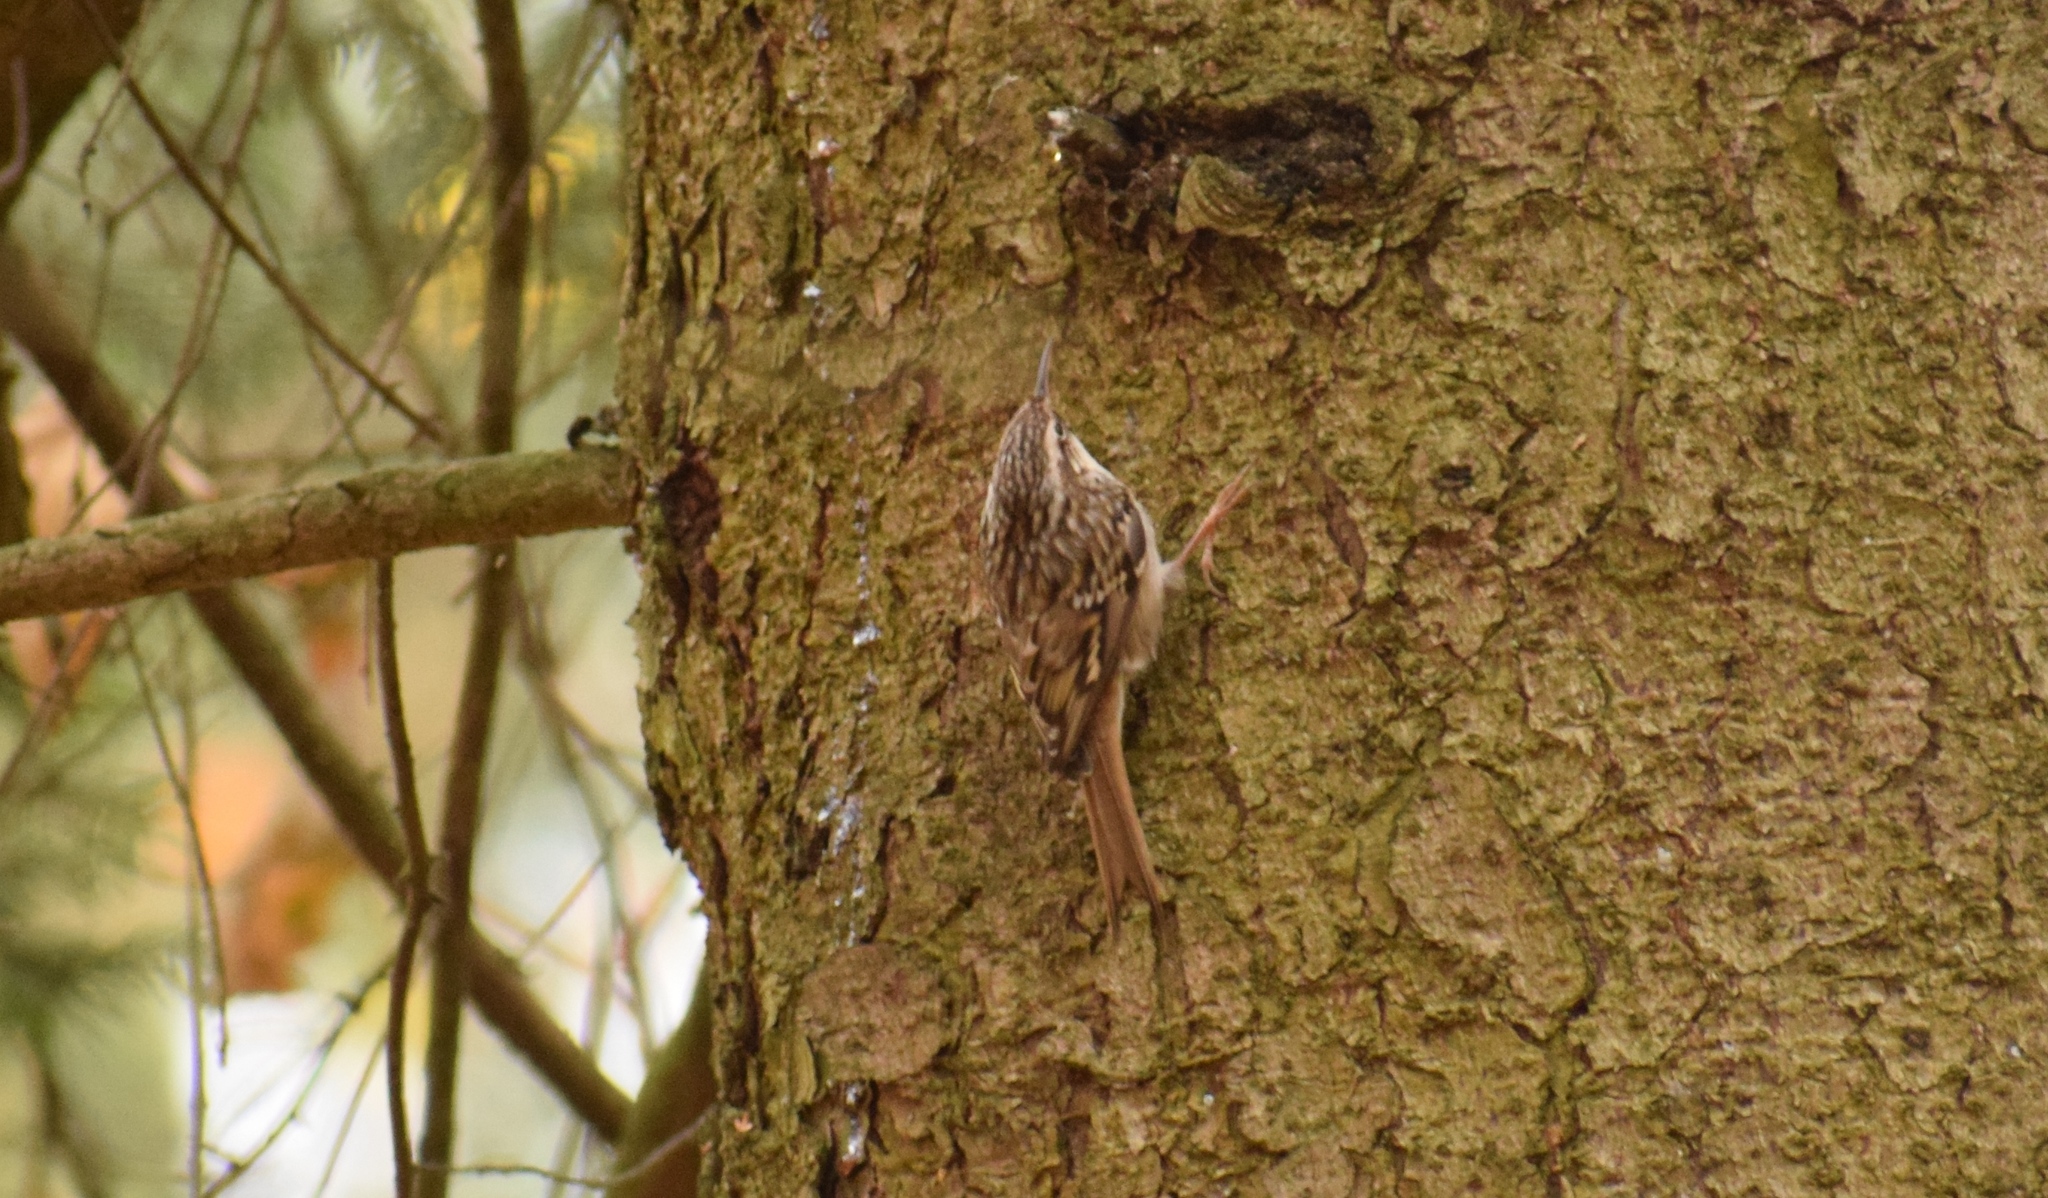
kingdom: Animalia
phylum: Chordata
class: Aves
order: Passeriformes
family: Certhiidae
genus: Certhia
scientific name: Certhia familiaris
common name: Eurasian treecreeper
